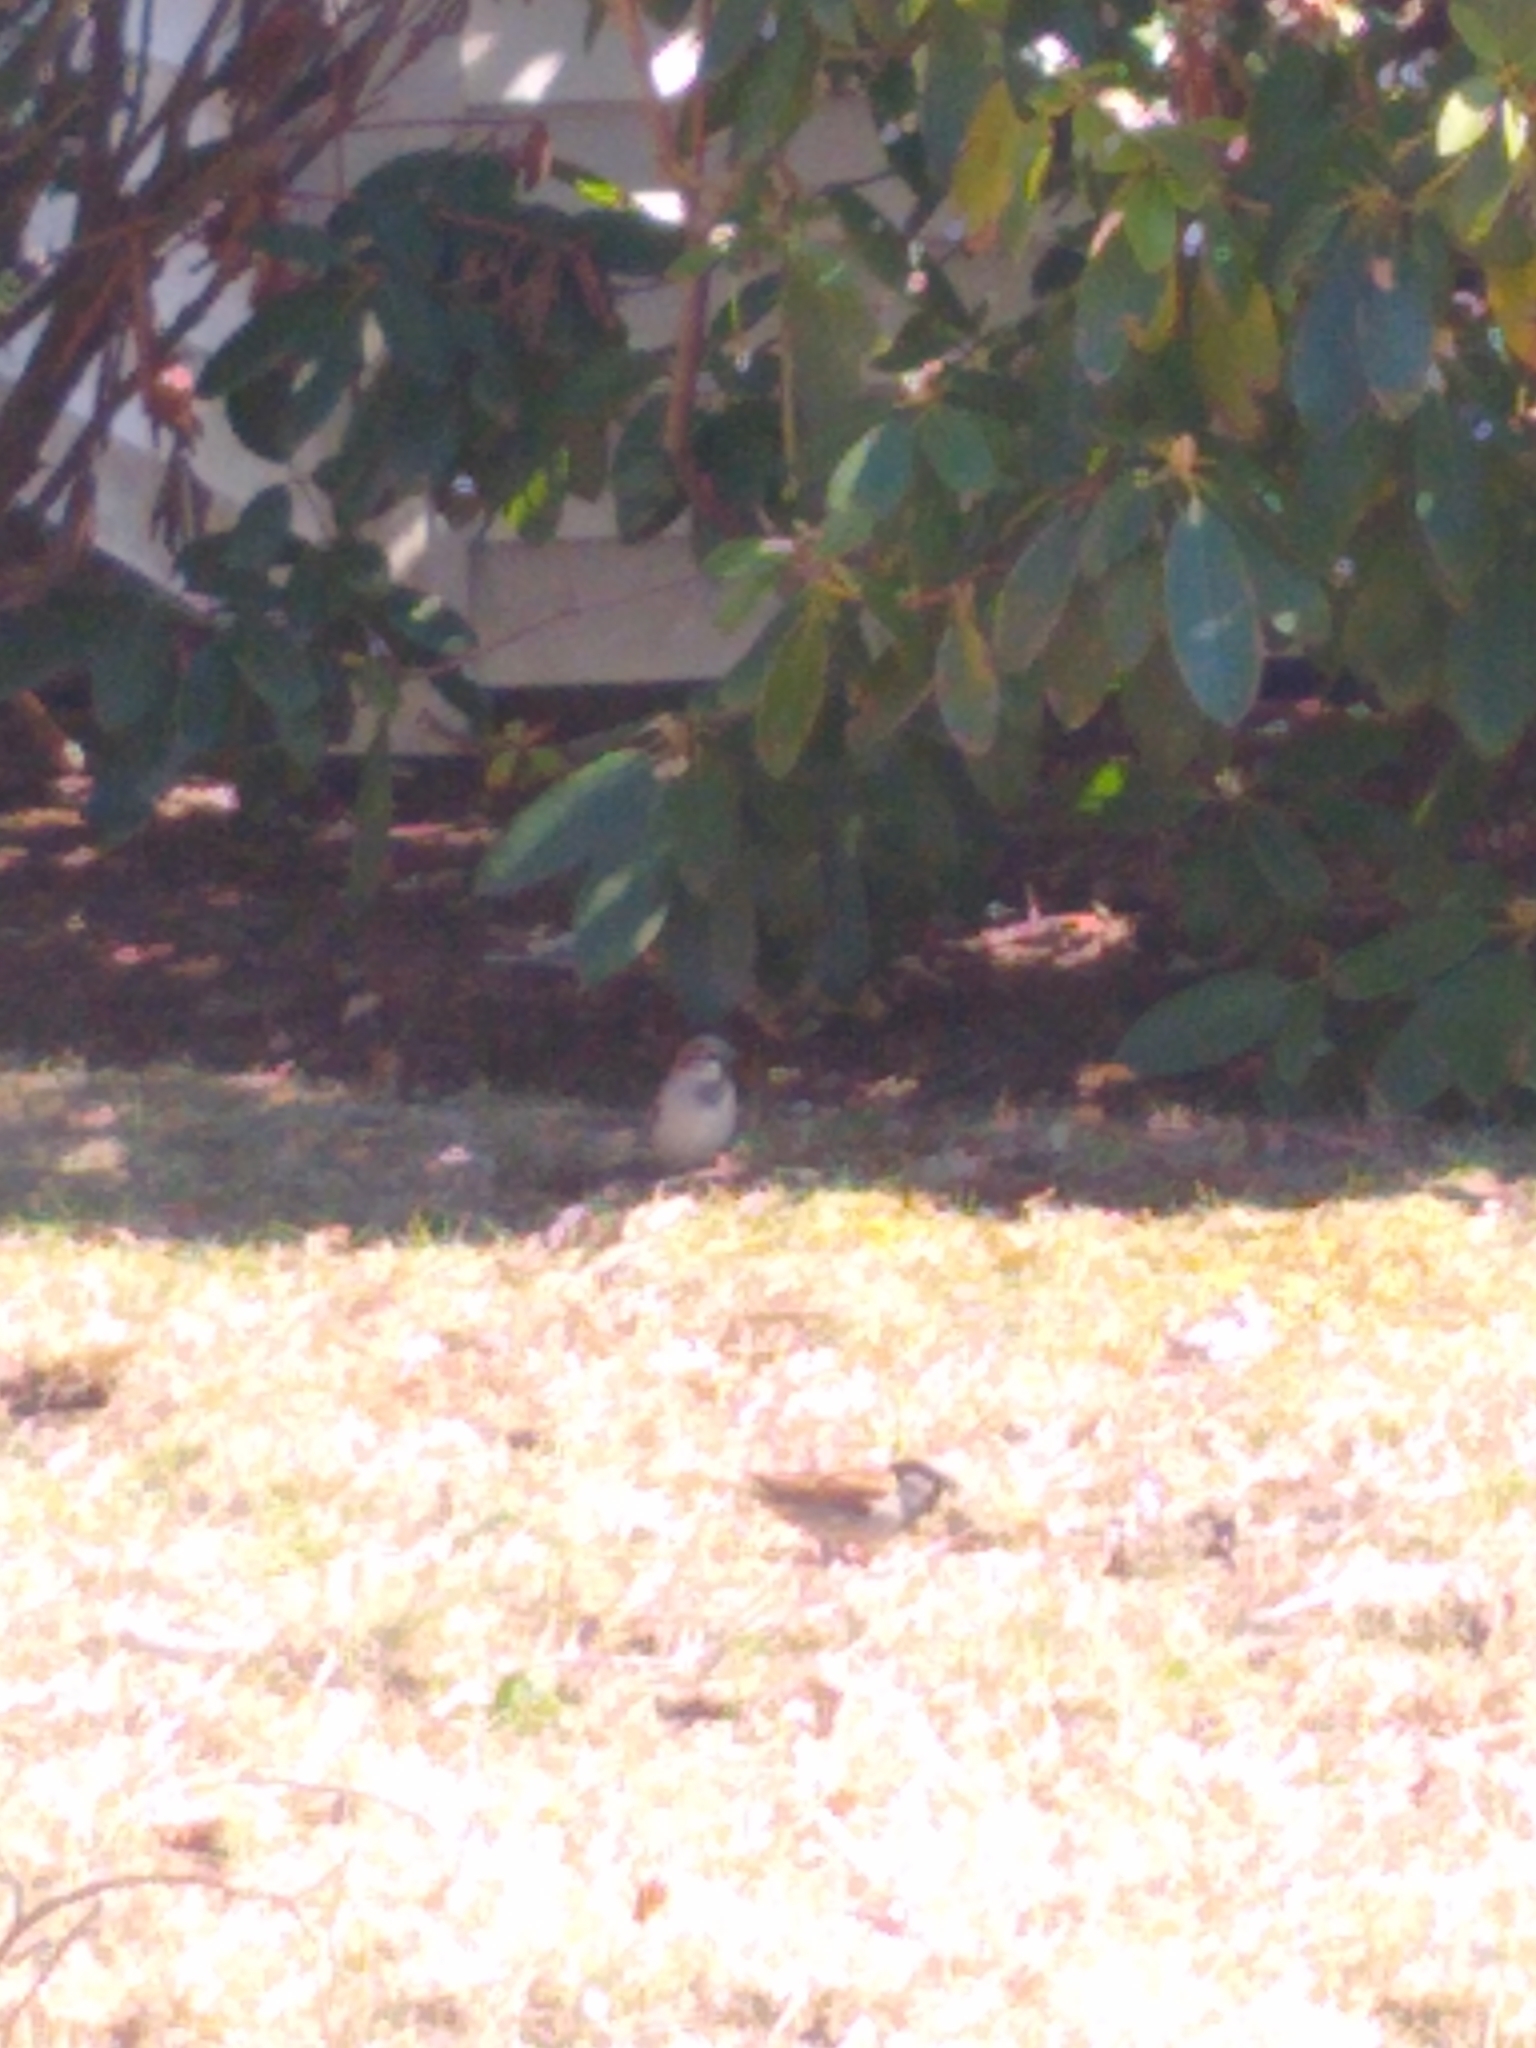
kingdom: Animalia
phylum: Chordata
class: Aves
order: Passeriformes
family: Passeridae
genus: Passer
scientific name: Passer domesticus
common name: House sparrow
